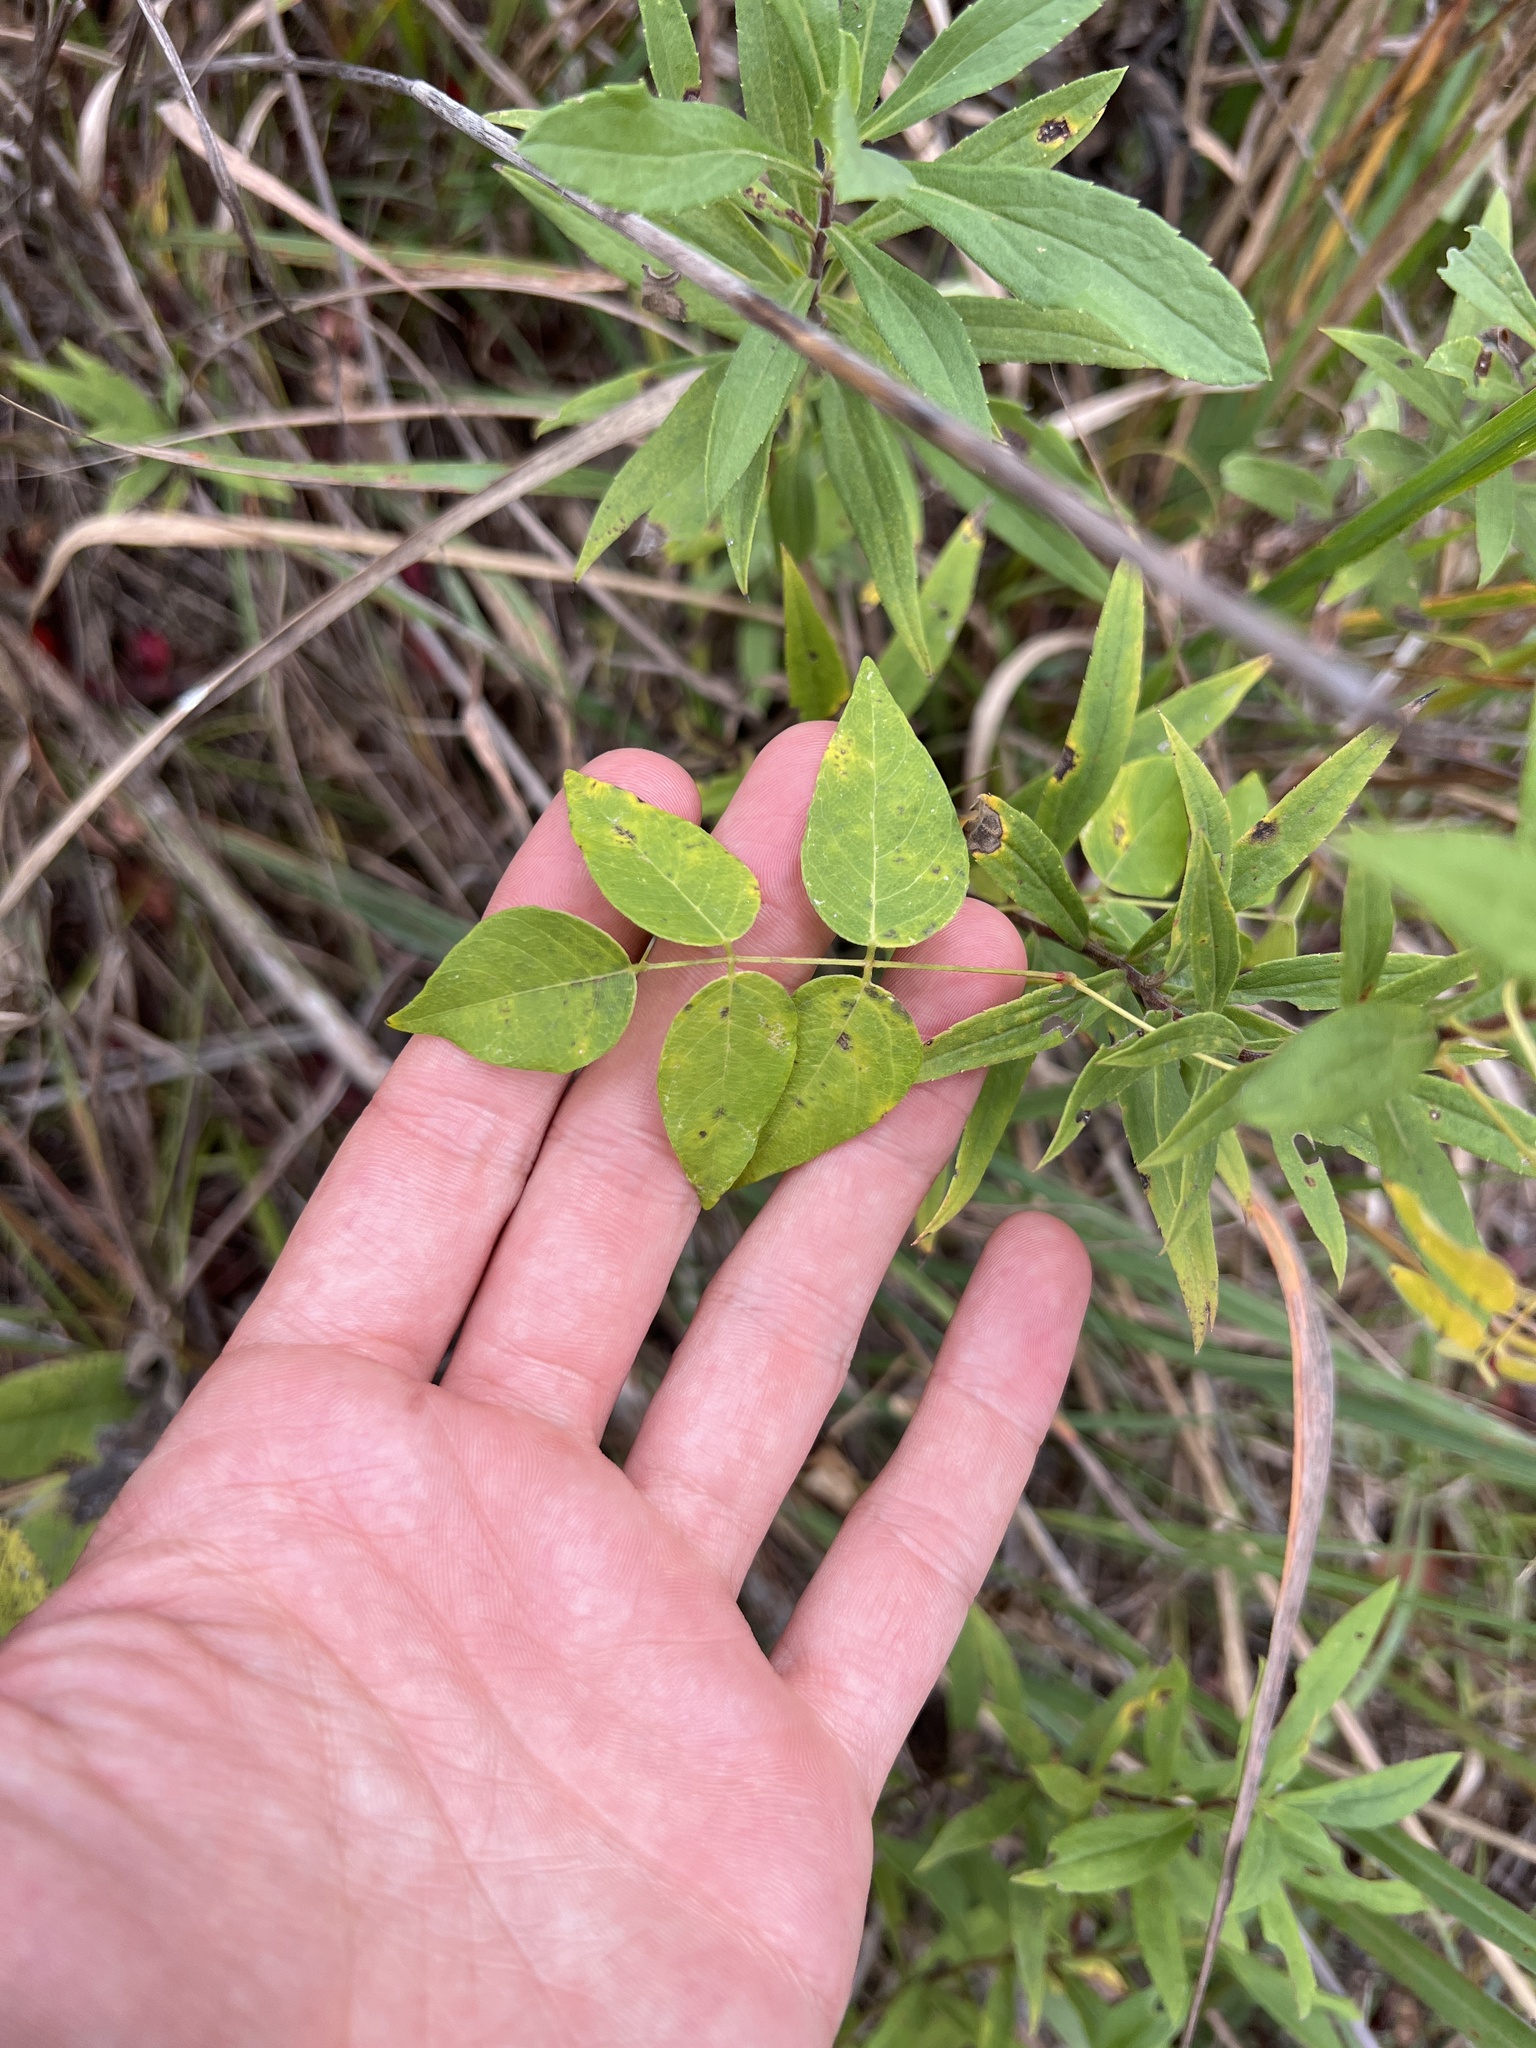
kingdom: Plantae
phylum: Tracheophyta
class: Magnoliopsida
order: Fabales
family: Fabaceae
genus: Apios
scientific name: Apios americana
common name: American potato-bean
